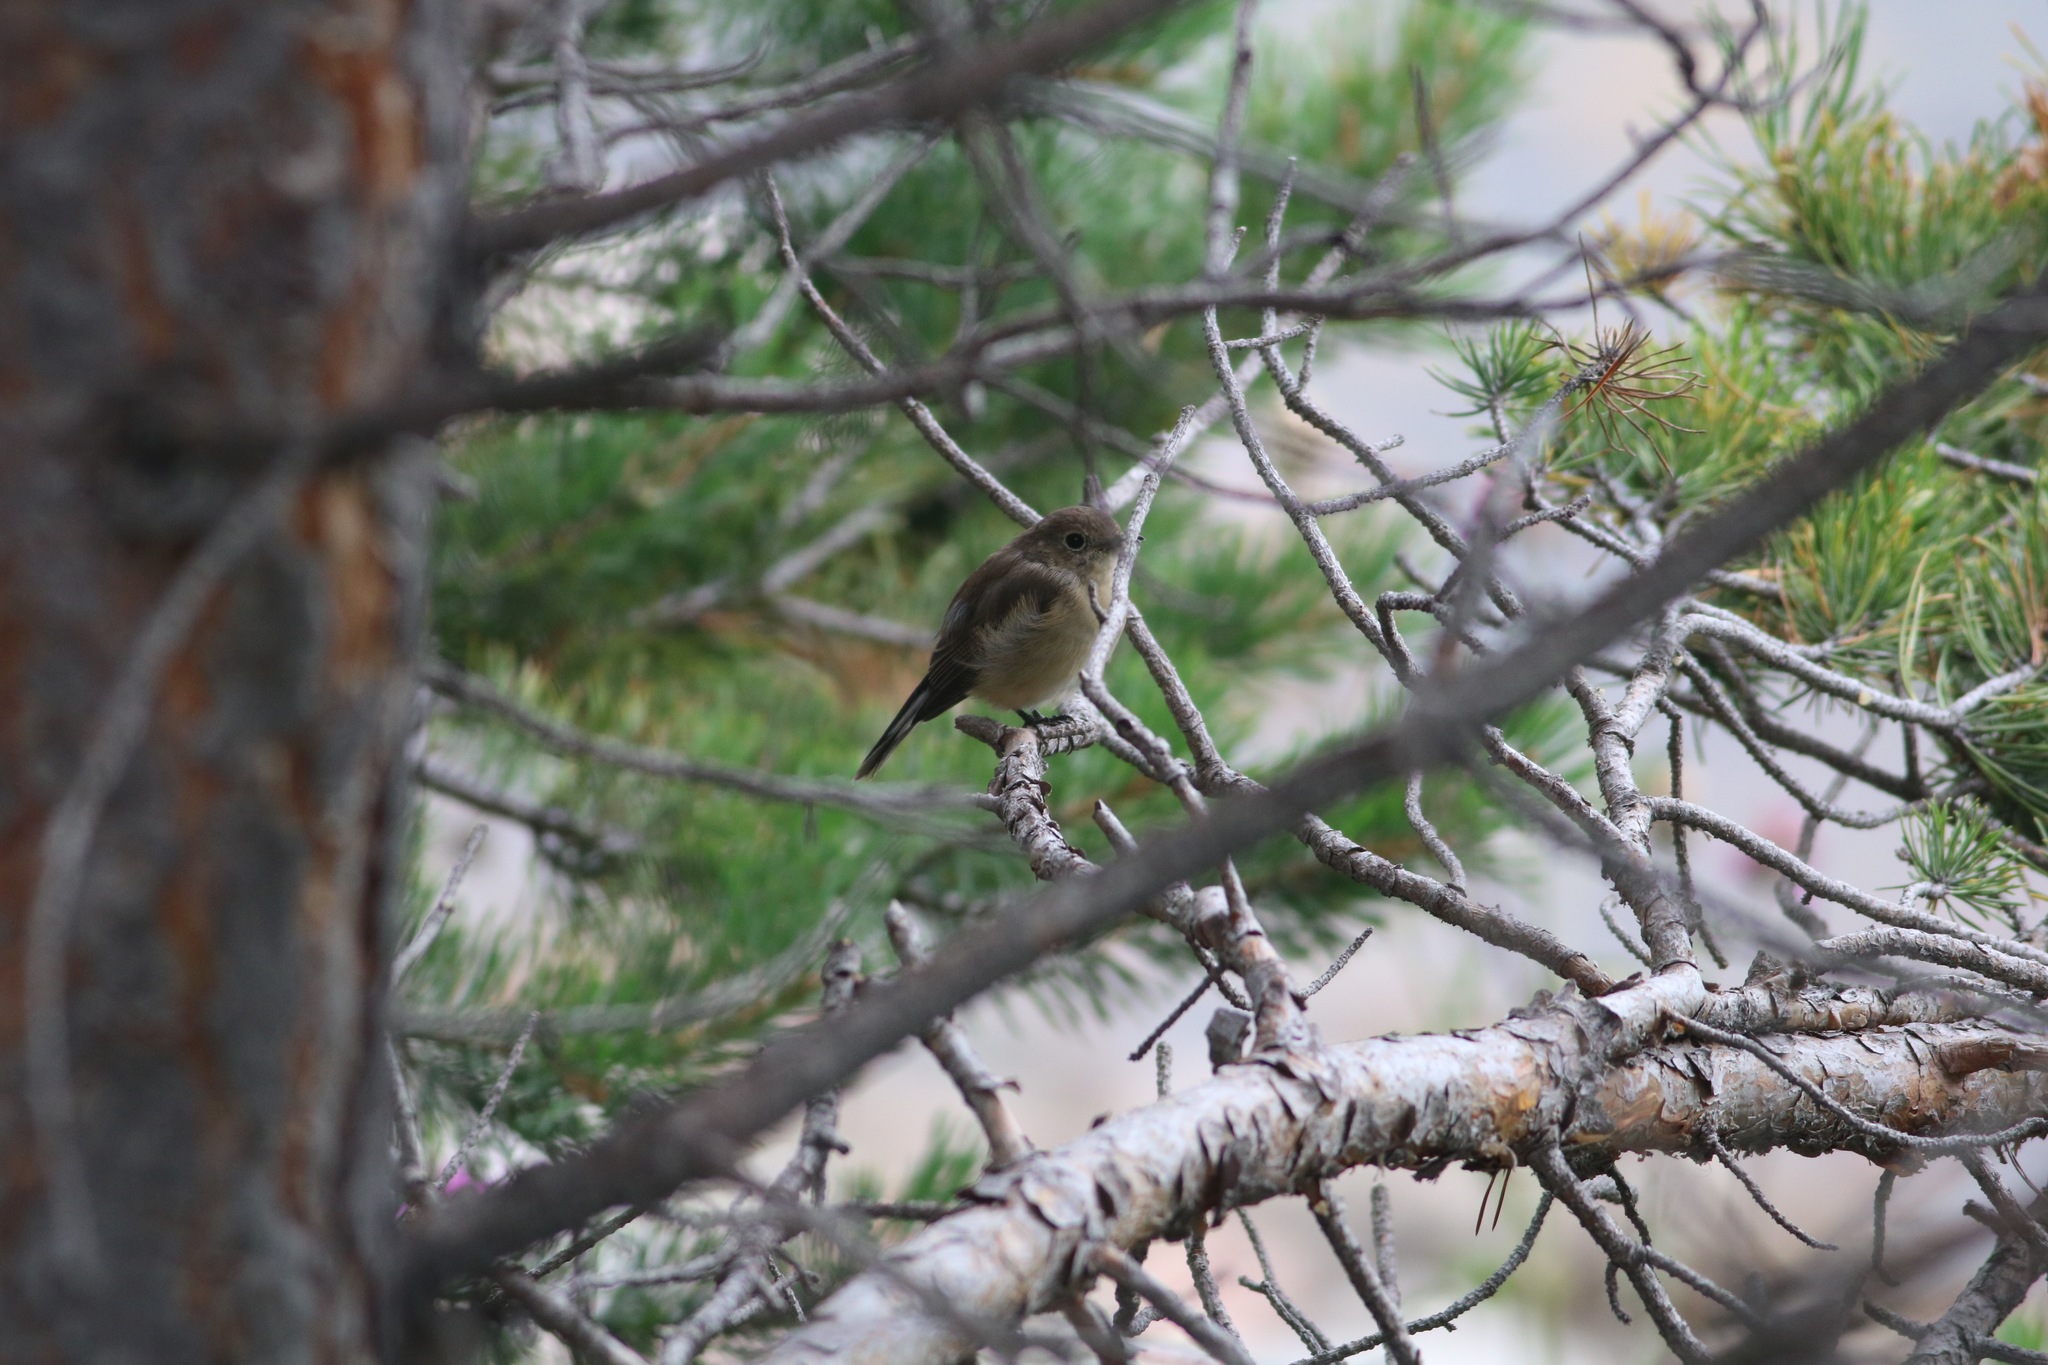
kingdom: Animalia
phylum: Chordata
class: Aves
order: Passeriformes
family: Muscicapidae
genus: Ficedula
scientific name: Ficedula albicilla
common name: Taiga flycatcher
